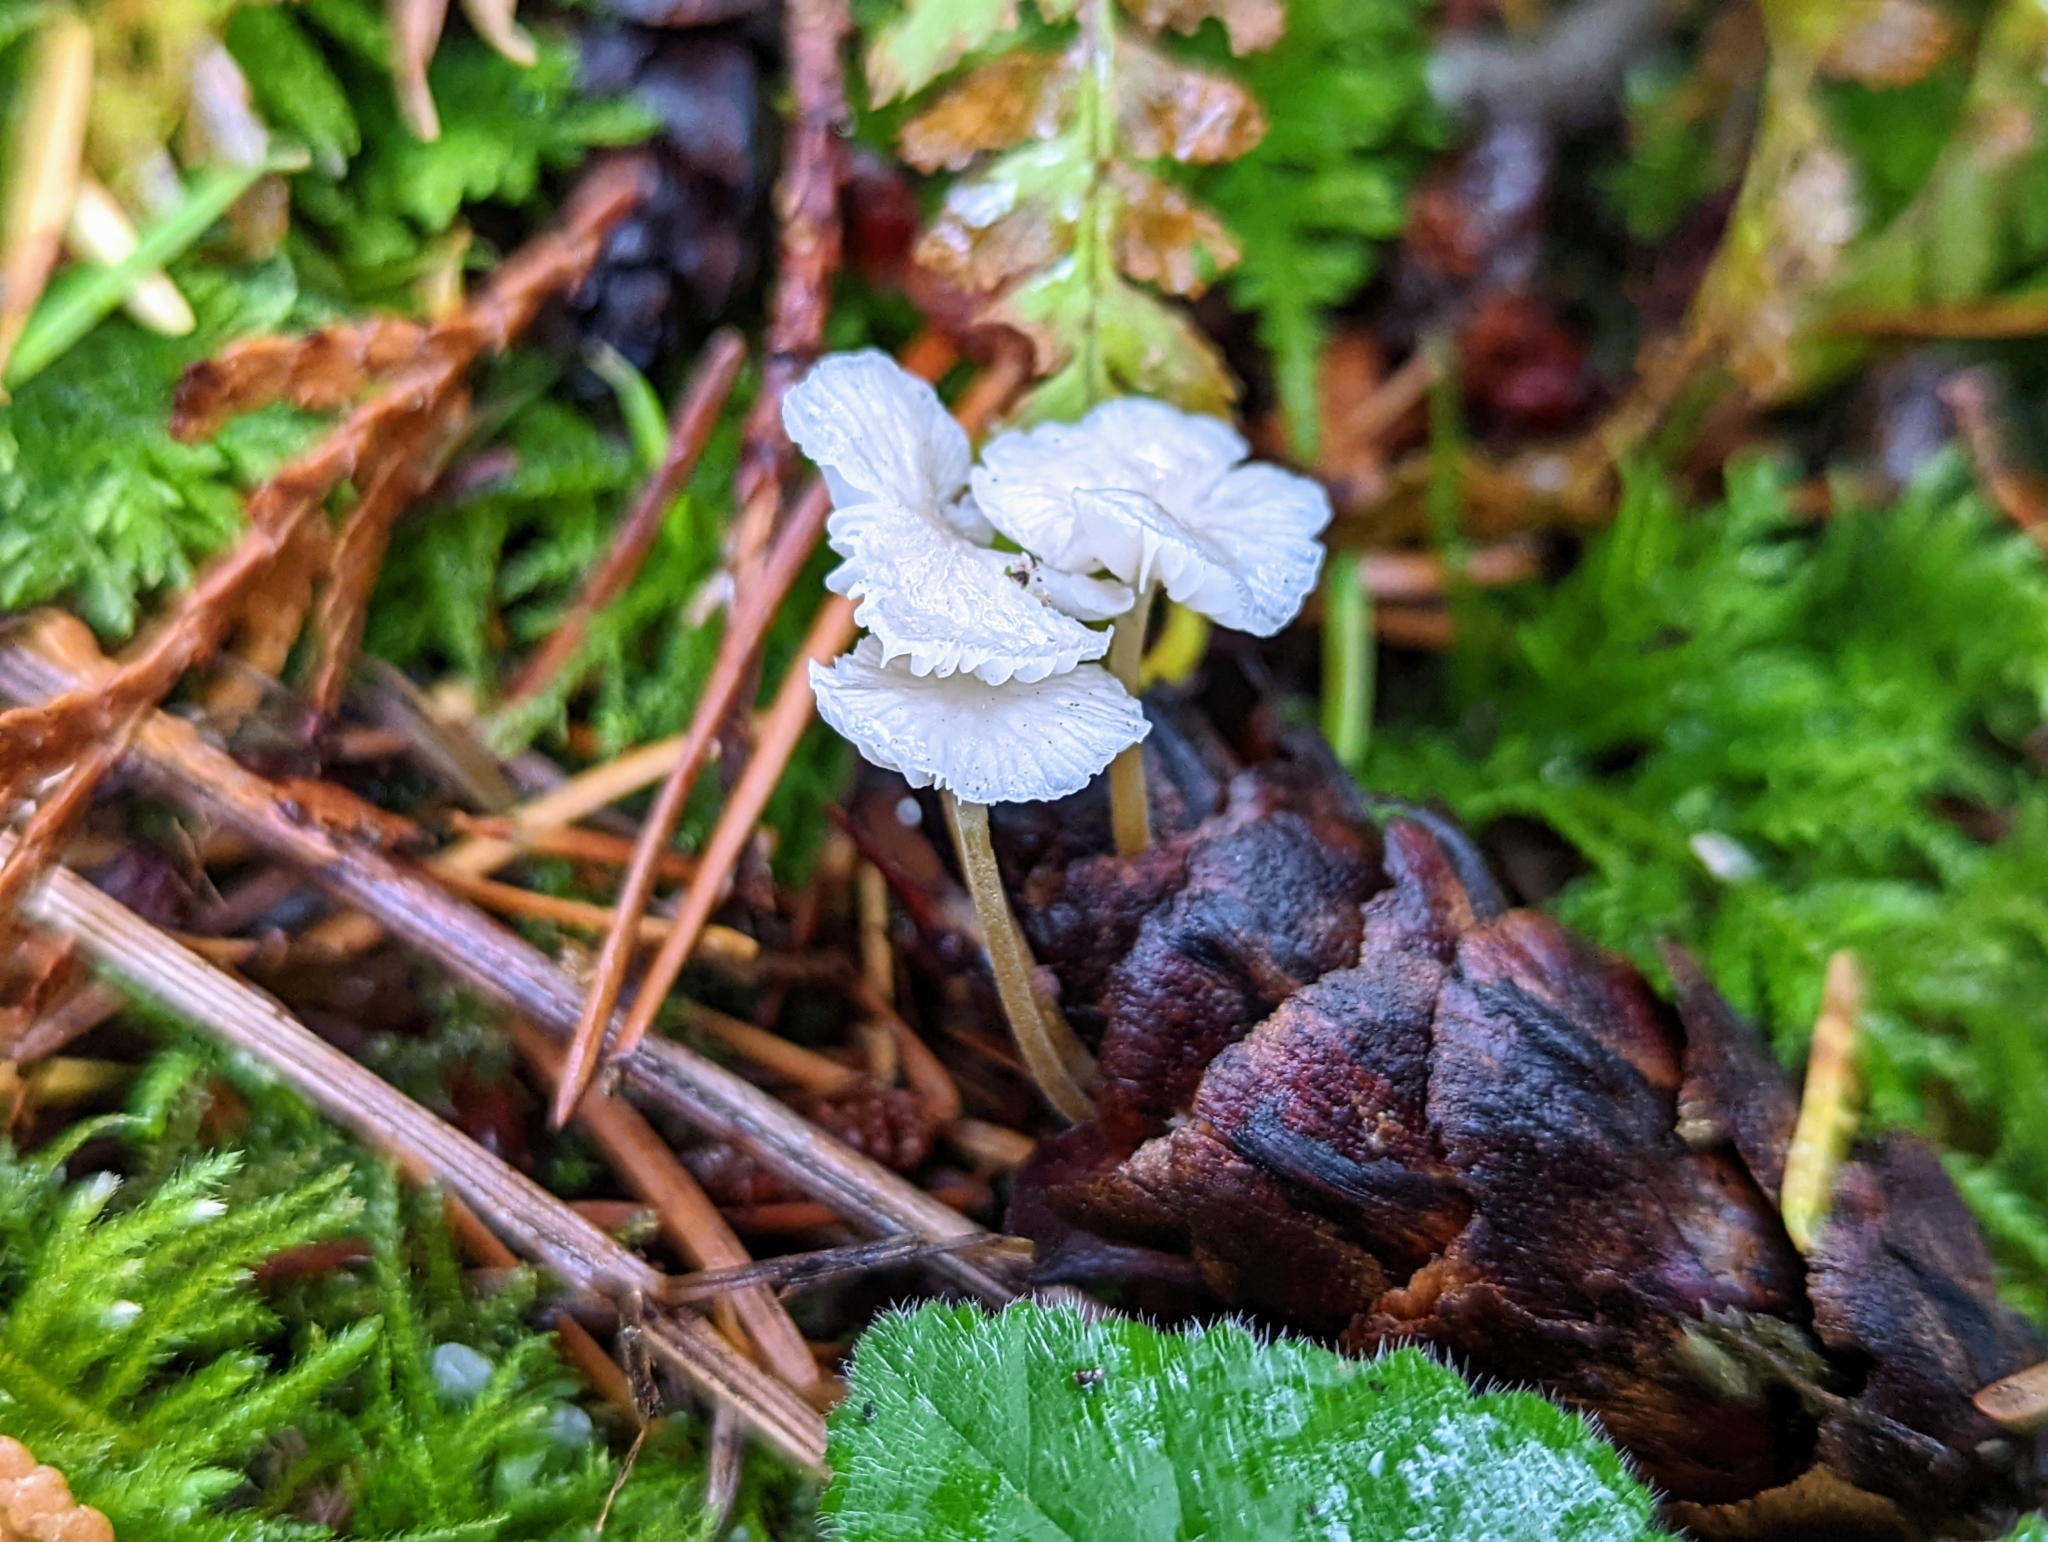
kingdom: Fungi
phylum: Basidiomycota
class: Agaricomycetes
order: Agaricales
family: Physalacriaceae
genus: Strobilurus
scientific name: Strobilurus trullisatus
